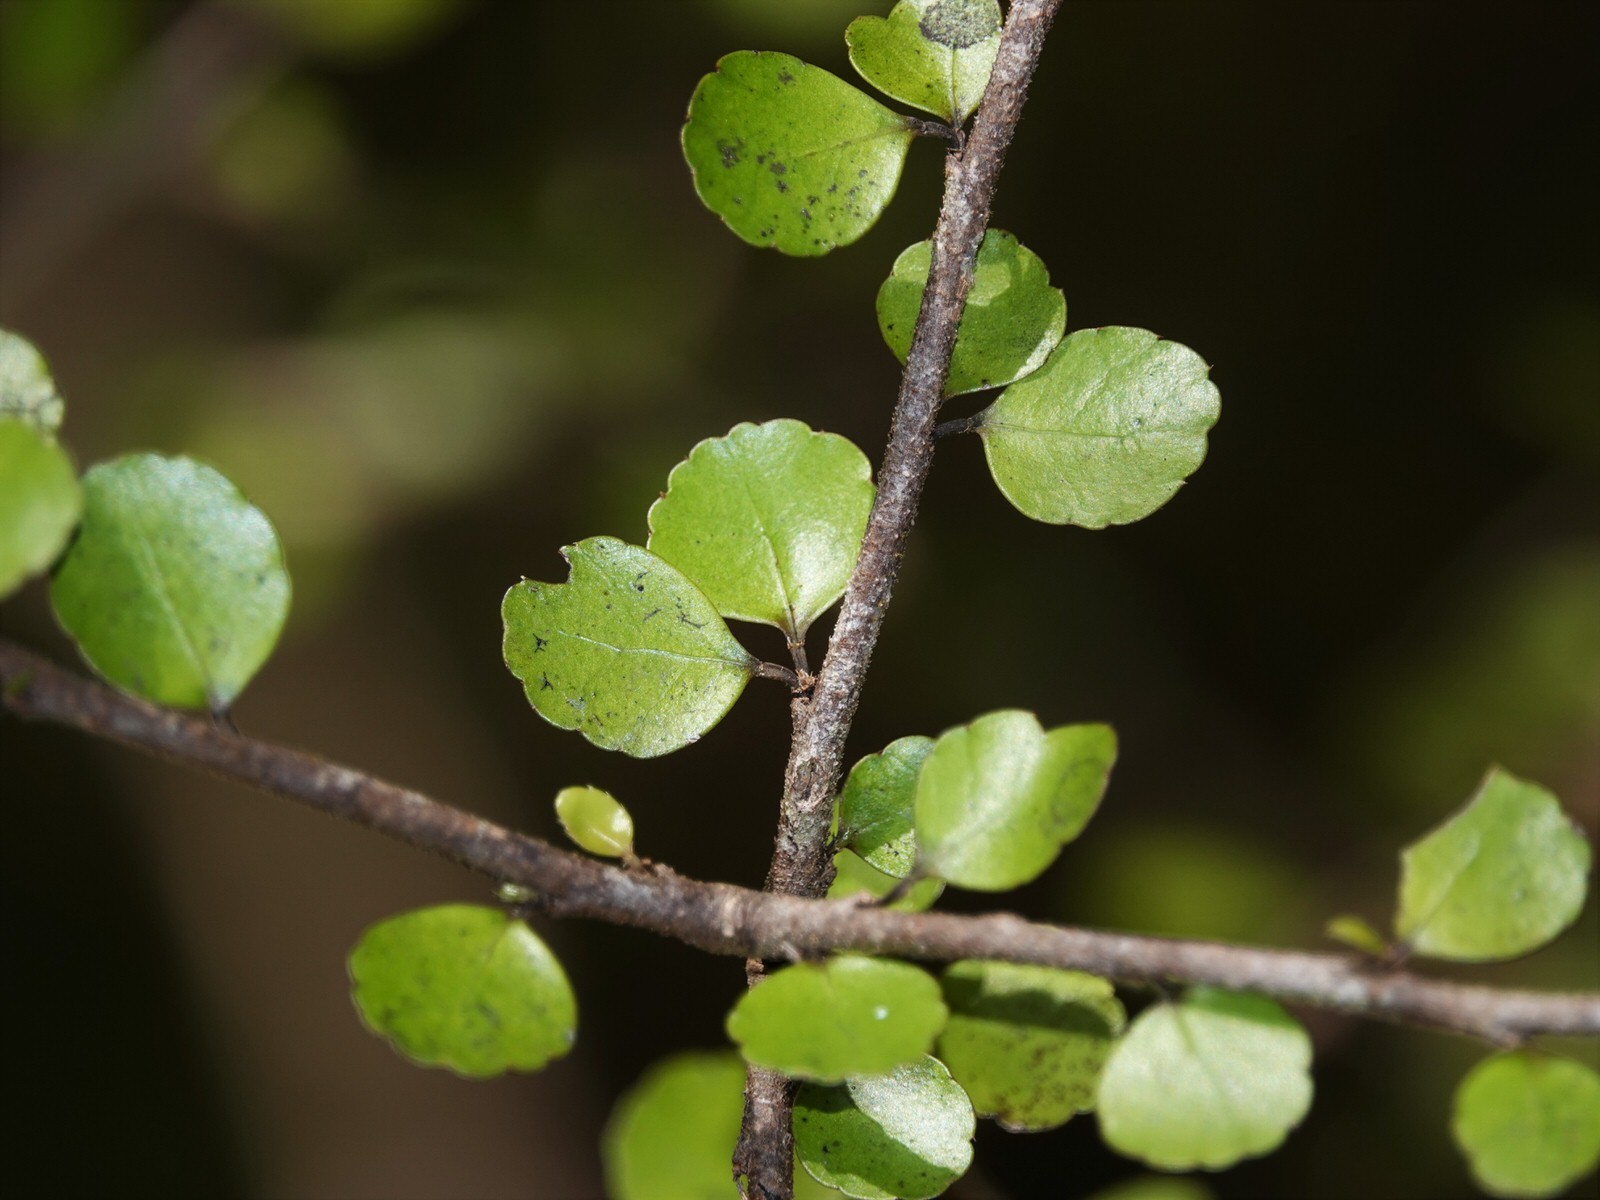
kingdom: Plantae
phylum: Tracheophyta
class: Magnoliopsida
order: Apiales
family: Araliaceae
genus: Raukaua
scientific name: Raukaua anomalus
